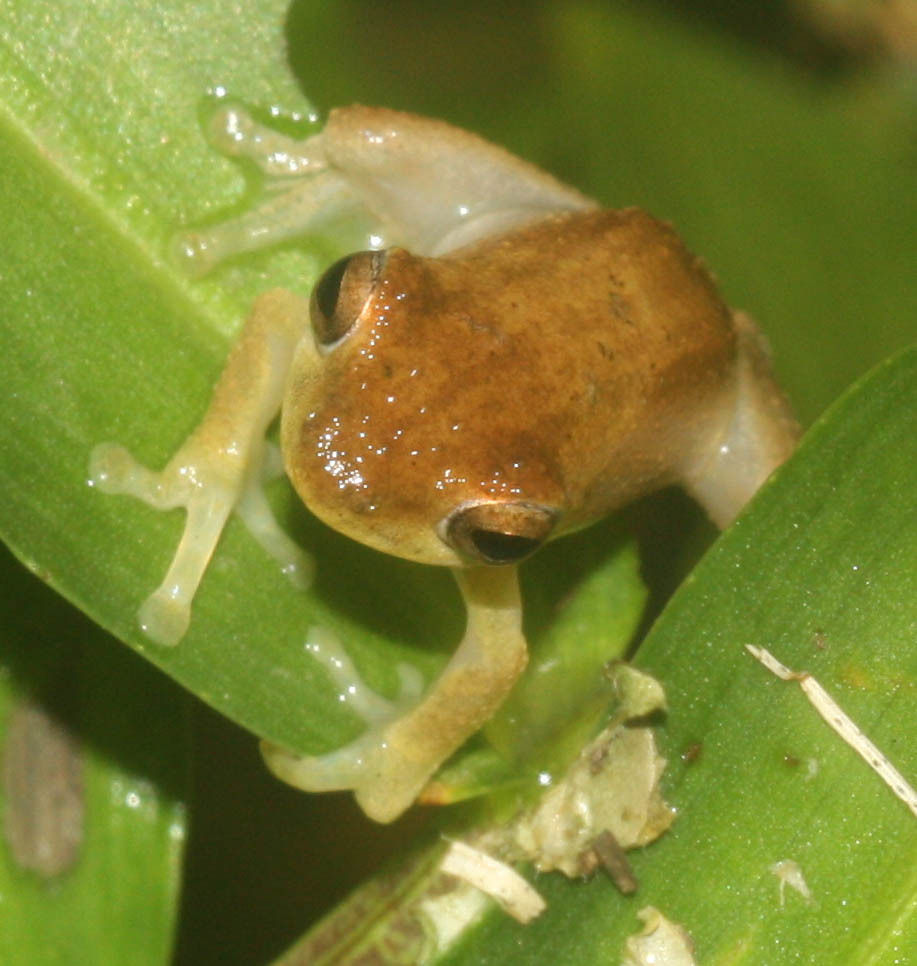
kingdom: Animalia
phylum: Chordata
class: Amphibia
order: Anura
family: Rhacophoridae
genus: Chiromantis
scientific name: Chiromantis doriae
